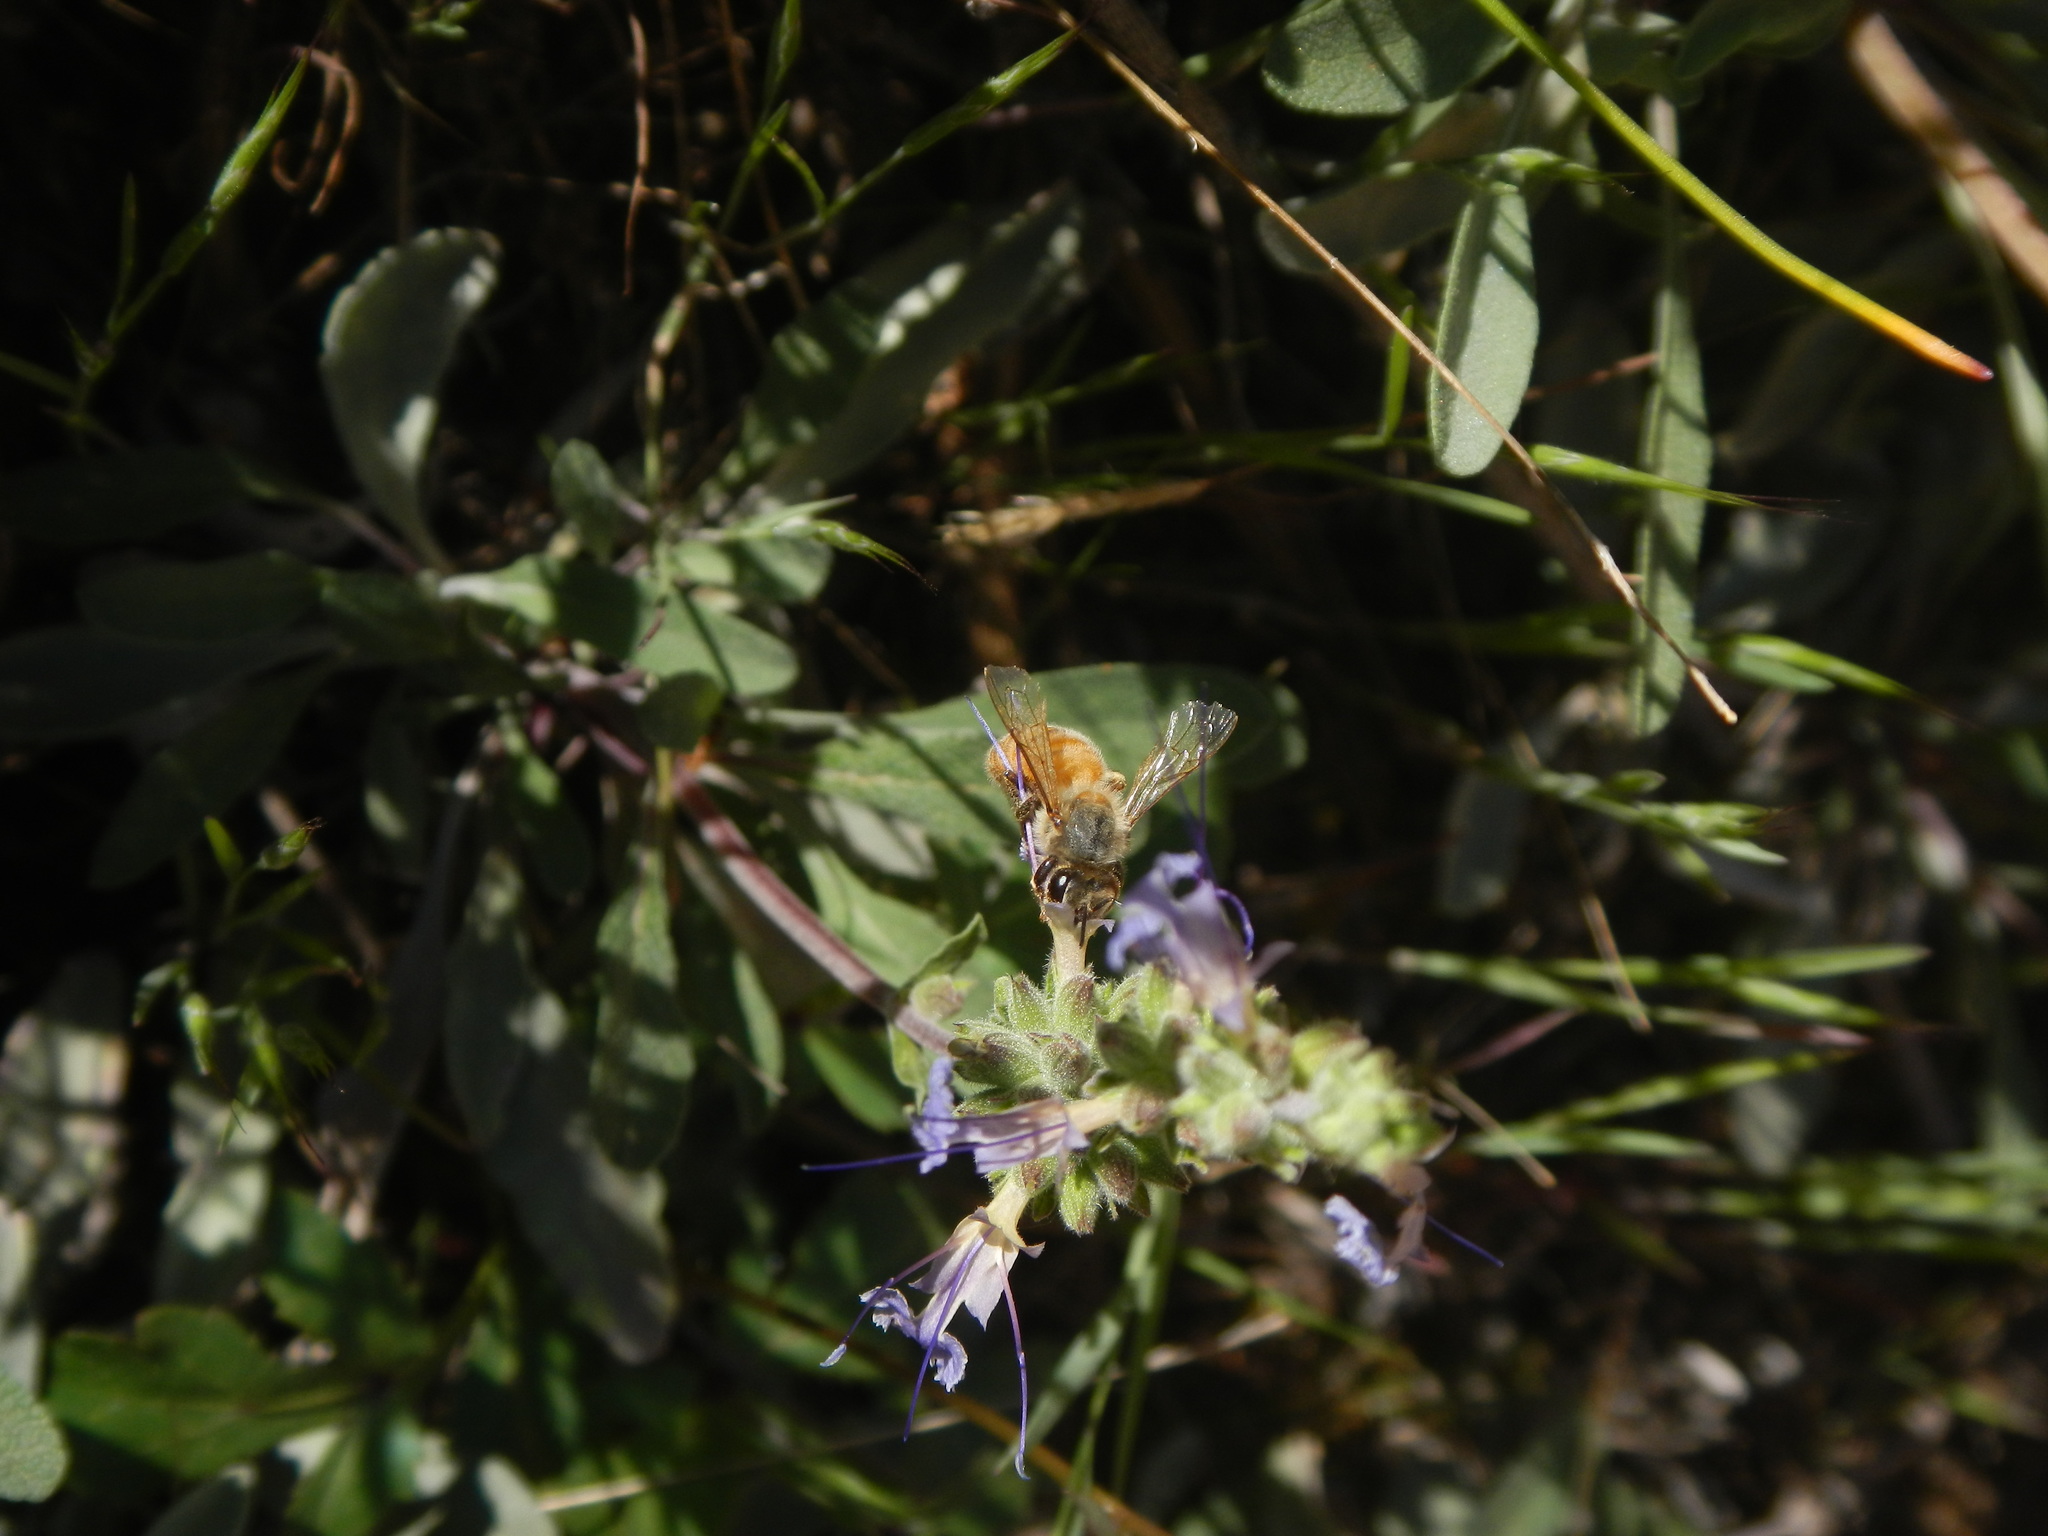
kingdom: Animalia
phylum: Arthropoda
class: Insecta
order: Hymenoptera
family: Apidae
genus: Apis
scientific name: Apis mellifera
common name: Honey bee
